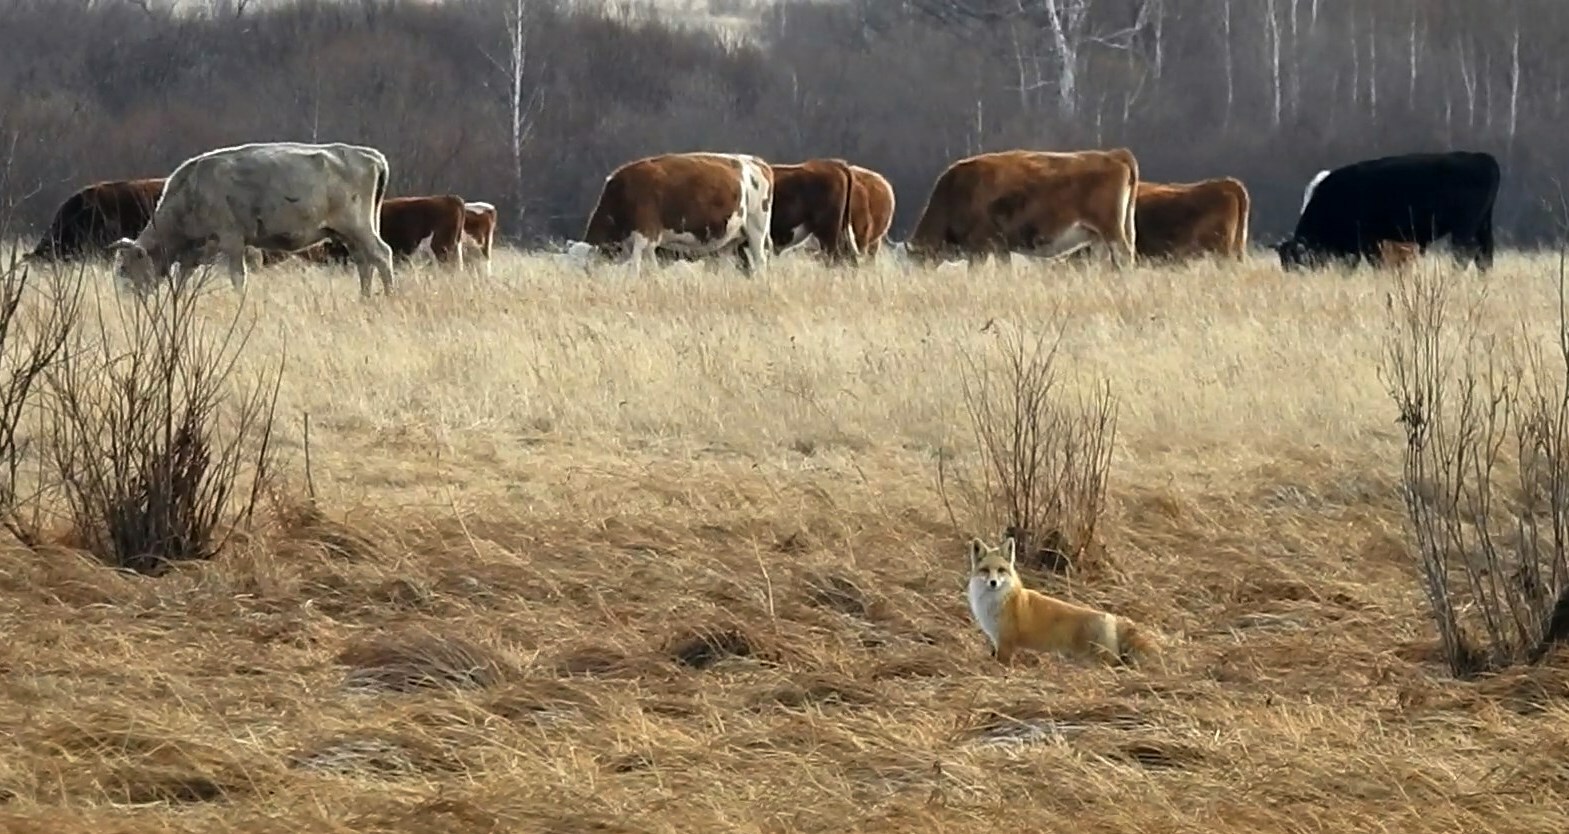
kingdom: Animalia
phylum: Chordata
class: Mammalia
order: Carnivora
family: Canidae
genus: Vulpes
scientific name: Vulpes vulpes
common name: Red fox
